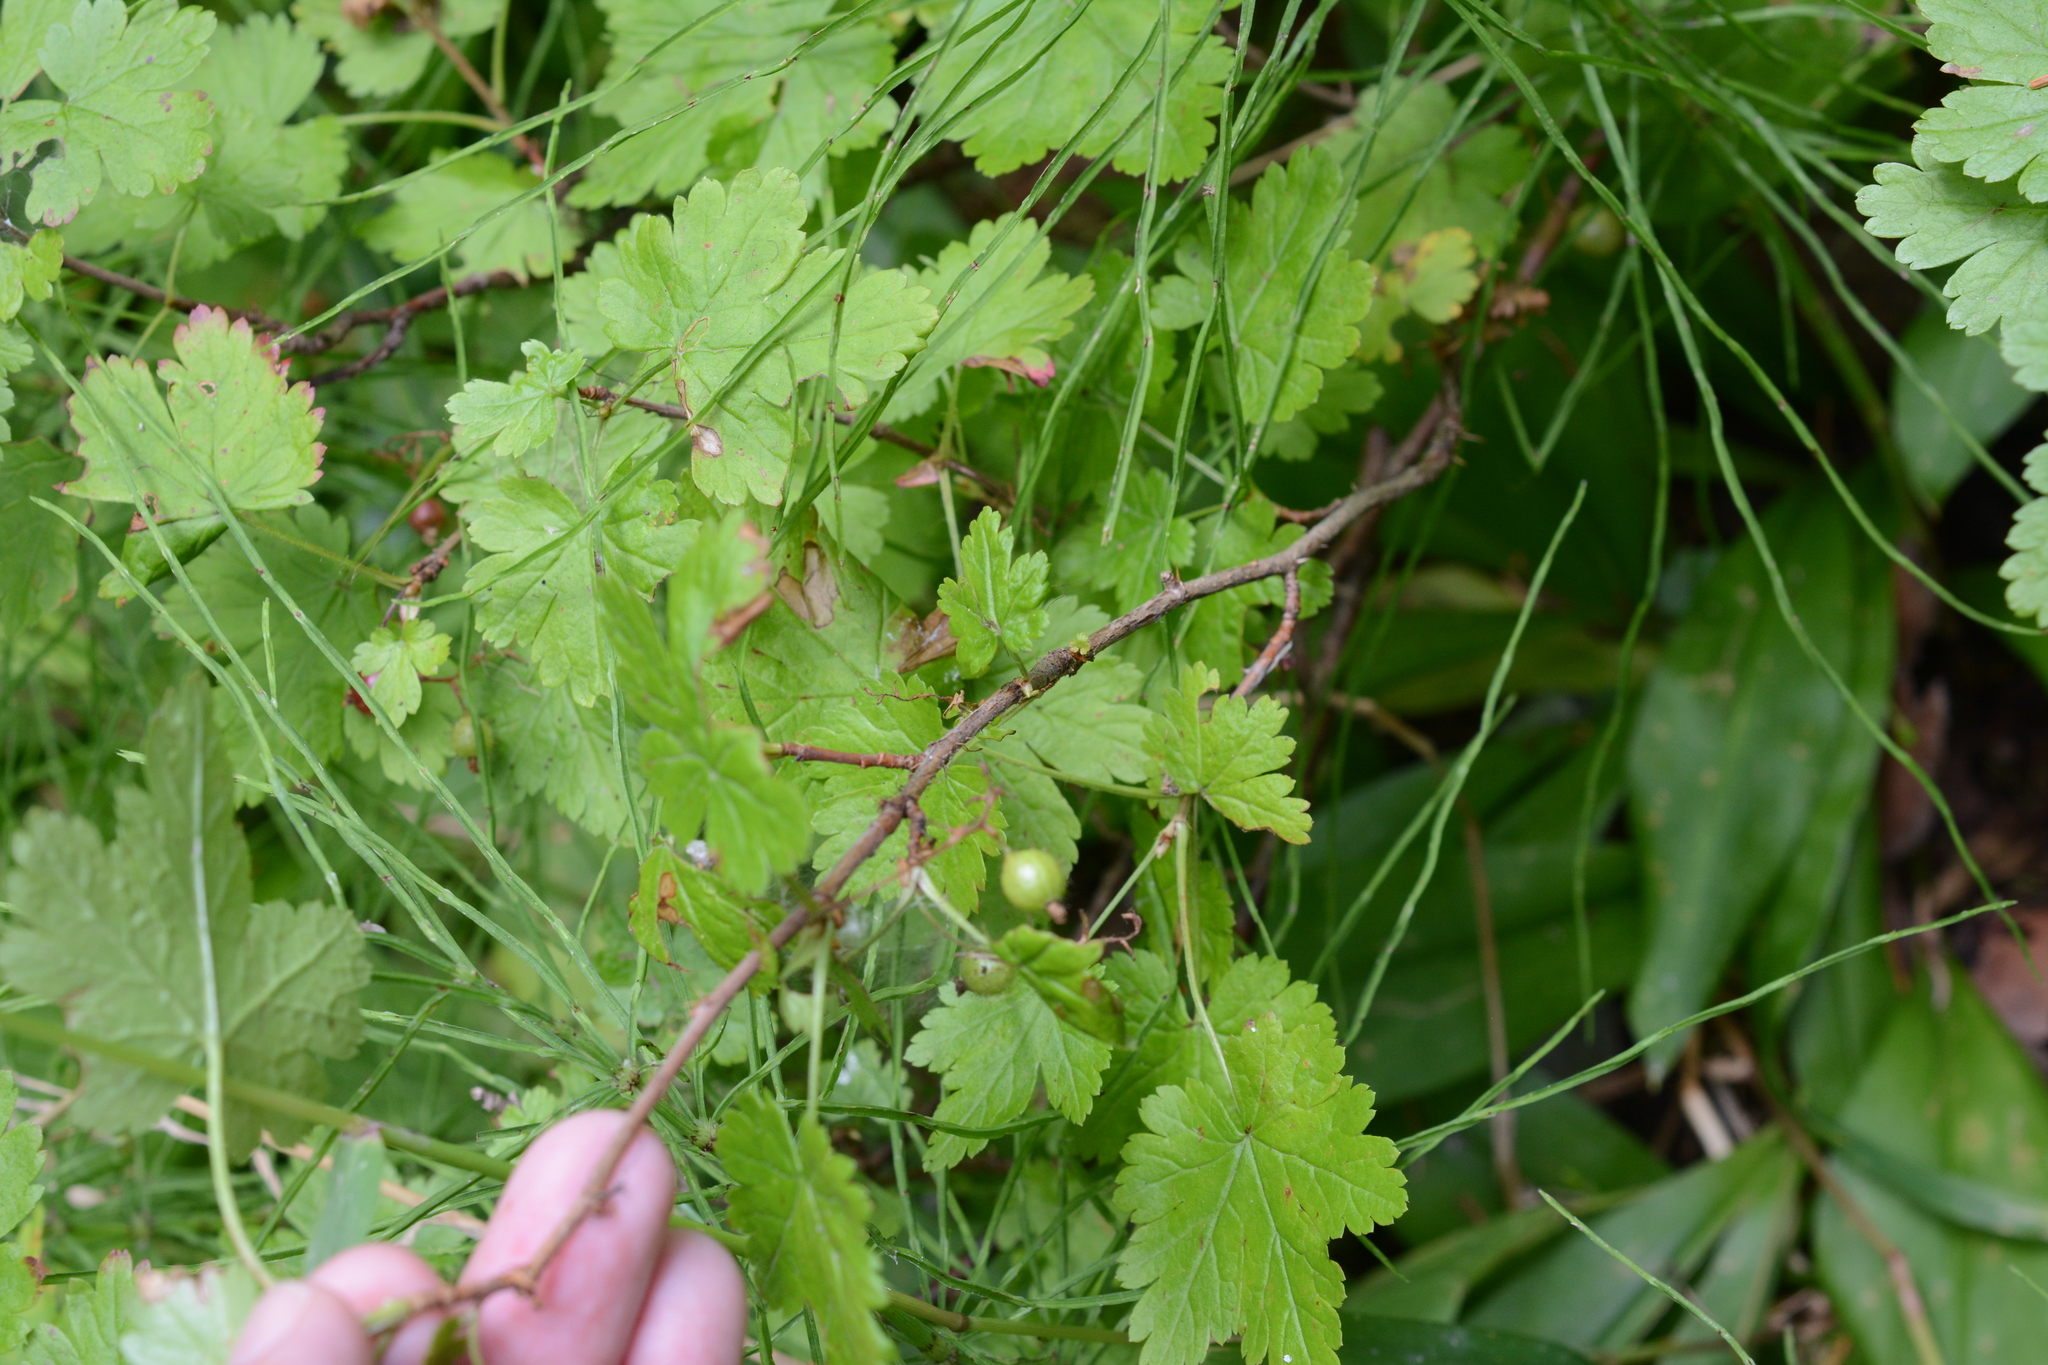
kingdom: Plantae
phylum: Tracheophyta
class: Magnoliopsida
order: Saxifragales
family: Grossulariaceae
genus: Ribes
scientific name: Ribes lacustre
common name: Black gooseberry
